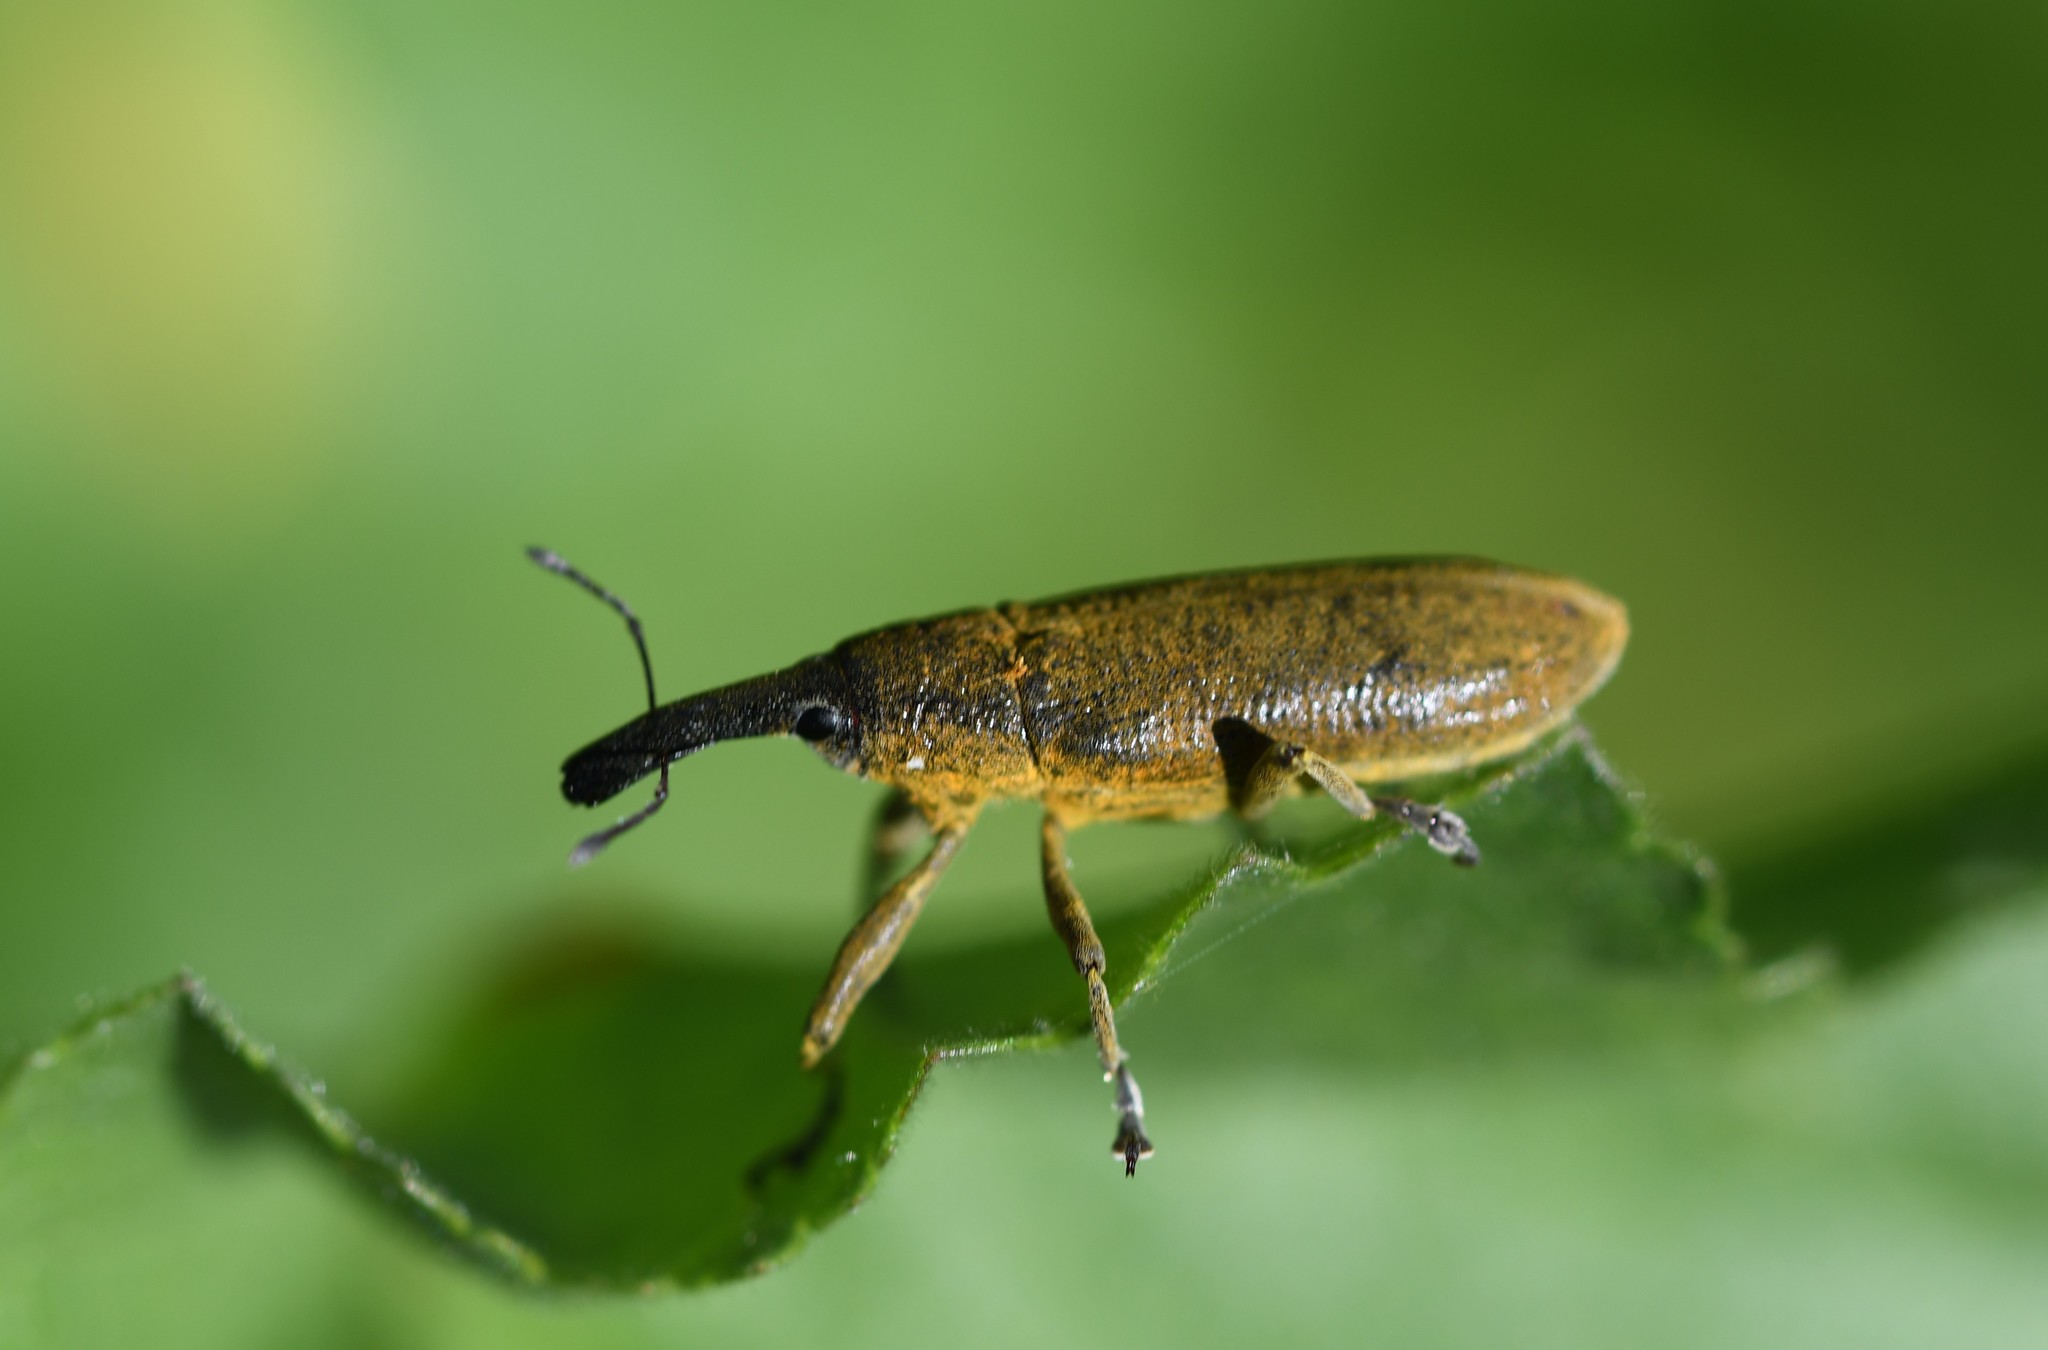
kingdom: Animalia
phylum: Arthropoda
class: Insecta
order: Coleoptera
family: Curculionidae
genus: Lixus
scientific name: Lixus pulverulentus
